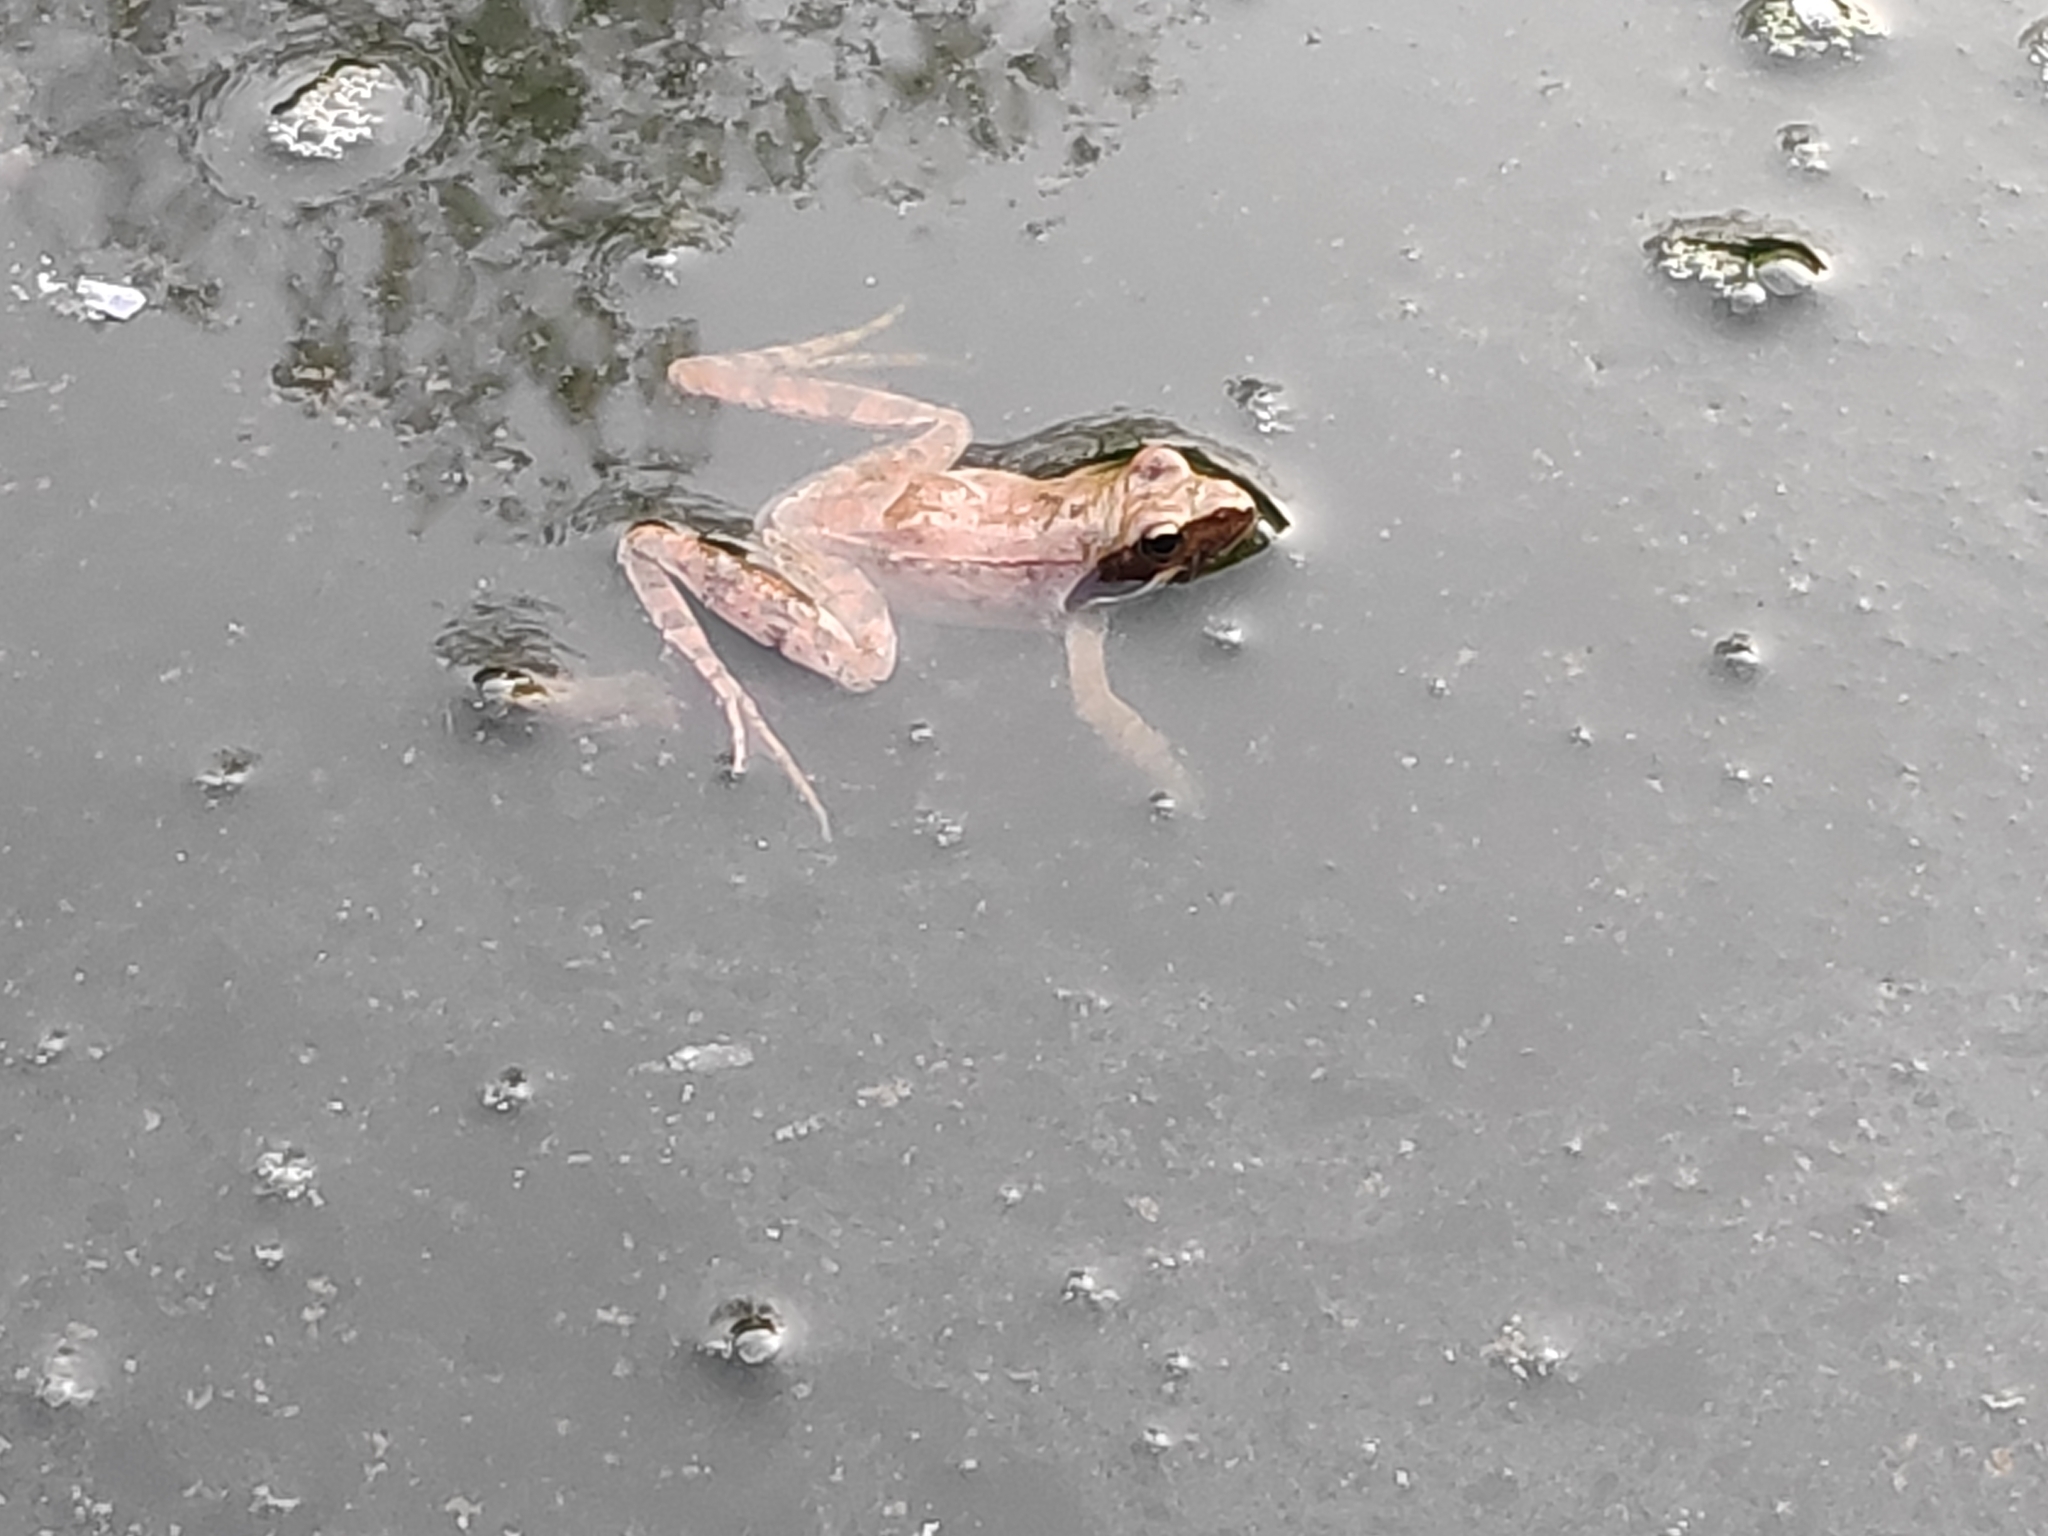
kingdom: Animalia
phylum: Chordata
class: Amphibia
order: Anura
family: Ranidae
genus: Rana
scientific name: Rana latastei
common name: Italian agile frog
